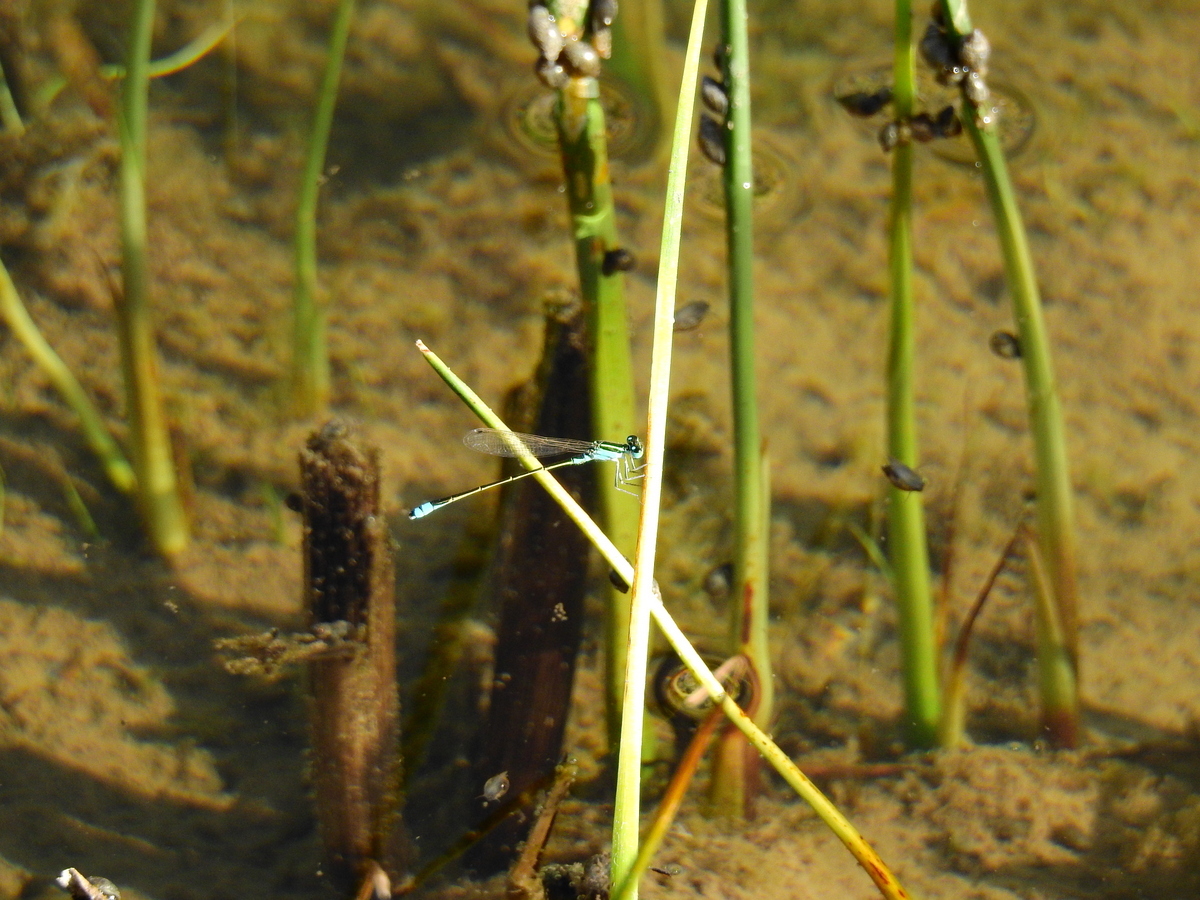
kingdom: Animalia
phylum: Arthropoda
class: Insecta
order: Odonata
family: Coenagrionidae
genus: Ischnura
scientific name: Ischnura fluviatilis
